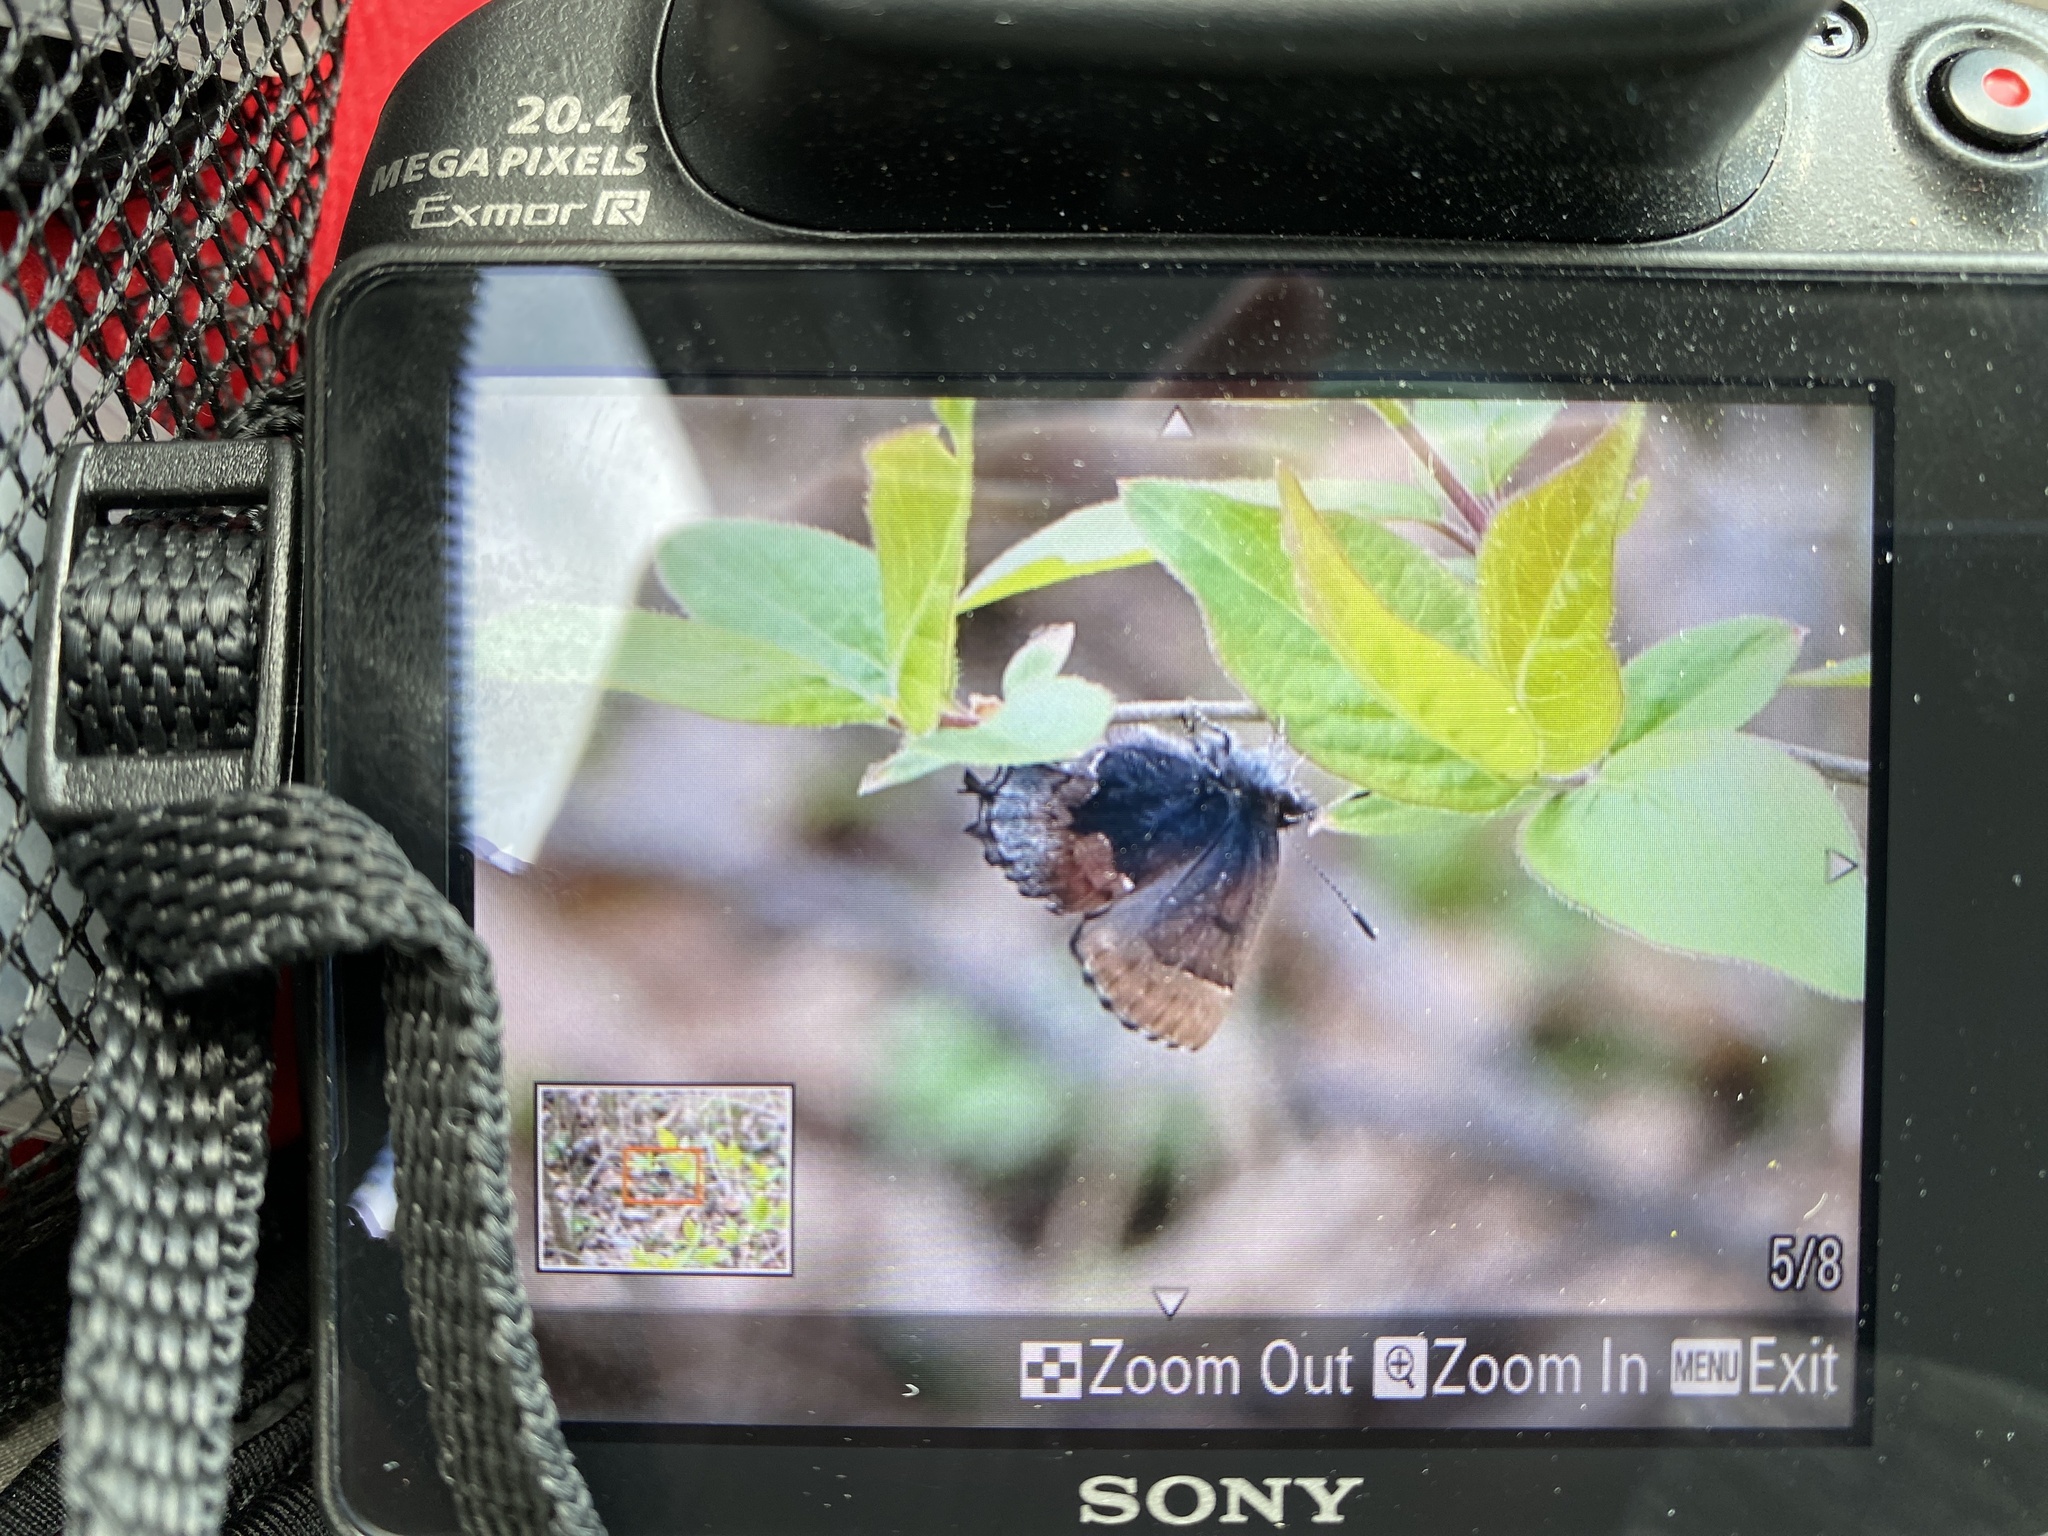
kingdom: Animalia
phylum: Arthropoda
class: Insecta
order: Lepidoptera
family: Lycaenidae
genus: Incisalia
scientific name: Incisalia henrici
